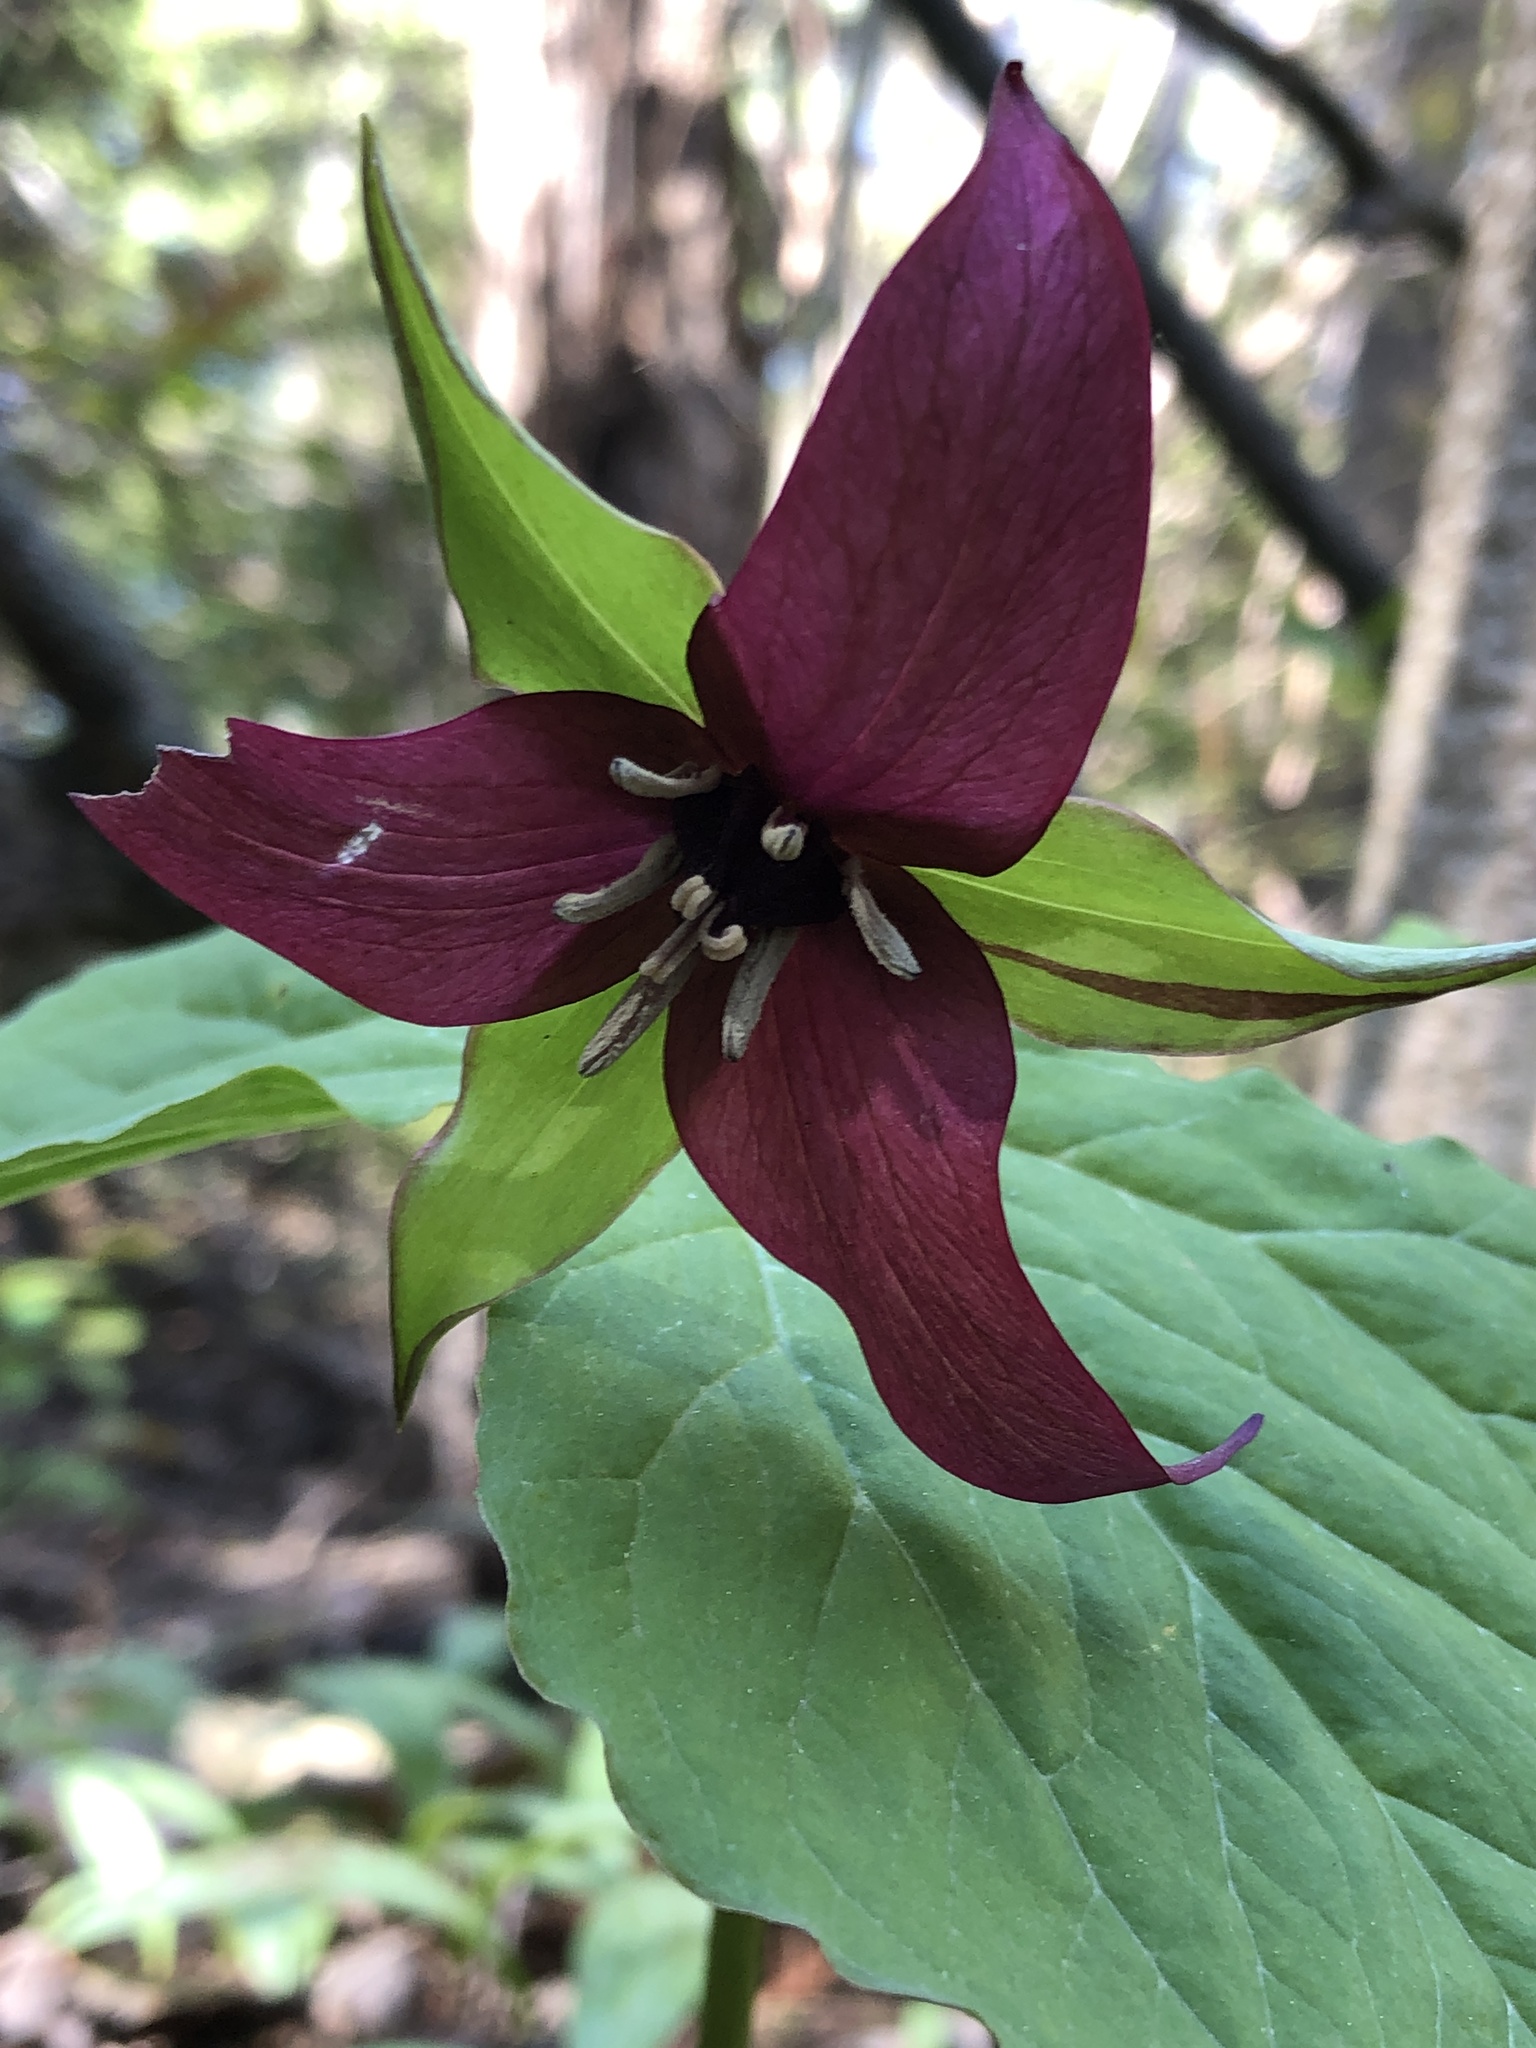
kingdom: Plantae
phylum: Tracheophyta
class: Liliopsida
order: Liliales
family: Melanthiaceae
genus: Trillium
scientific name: Trillium erectum
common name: Purple trillium
